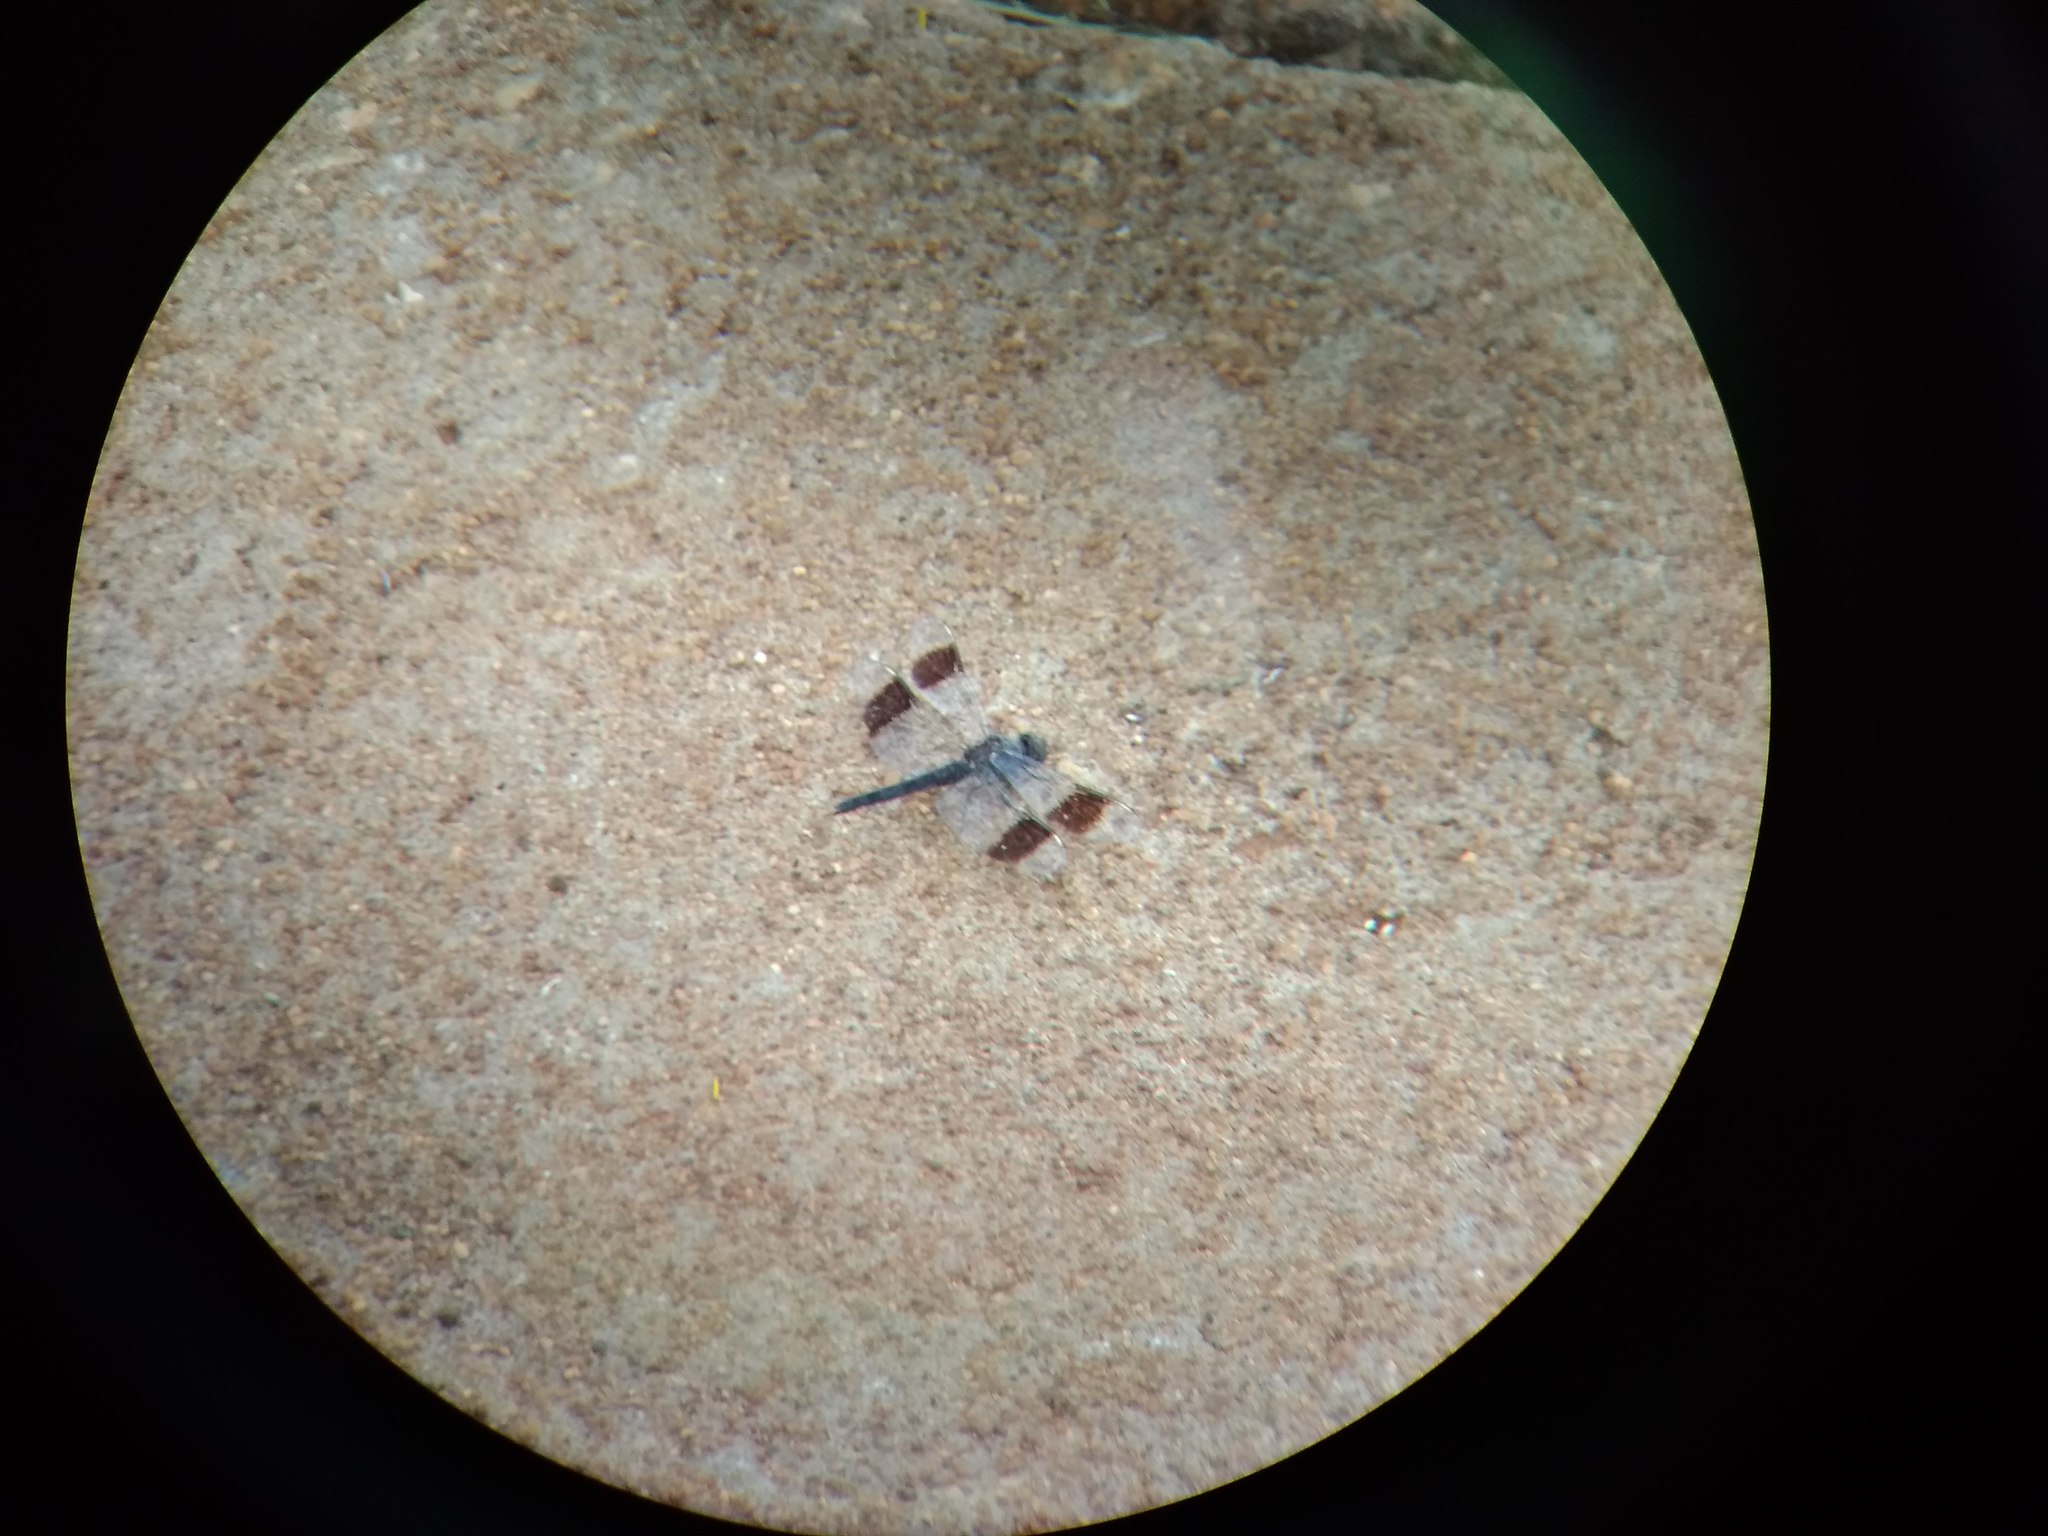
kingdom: Animalia
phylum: Arthropoda
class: Insecta
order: Odonata
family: Libellulidae
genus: Brachythemis
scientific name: Brachythemis leucosticta
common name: Banded groundling
